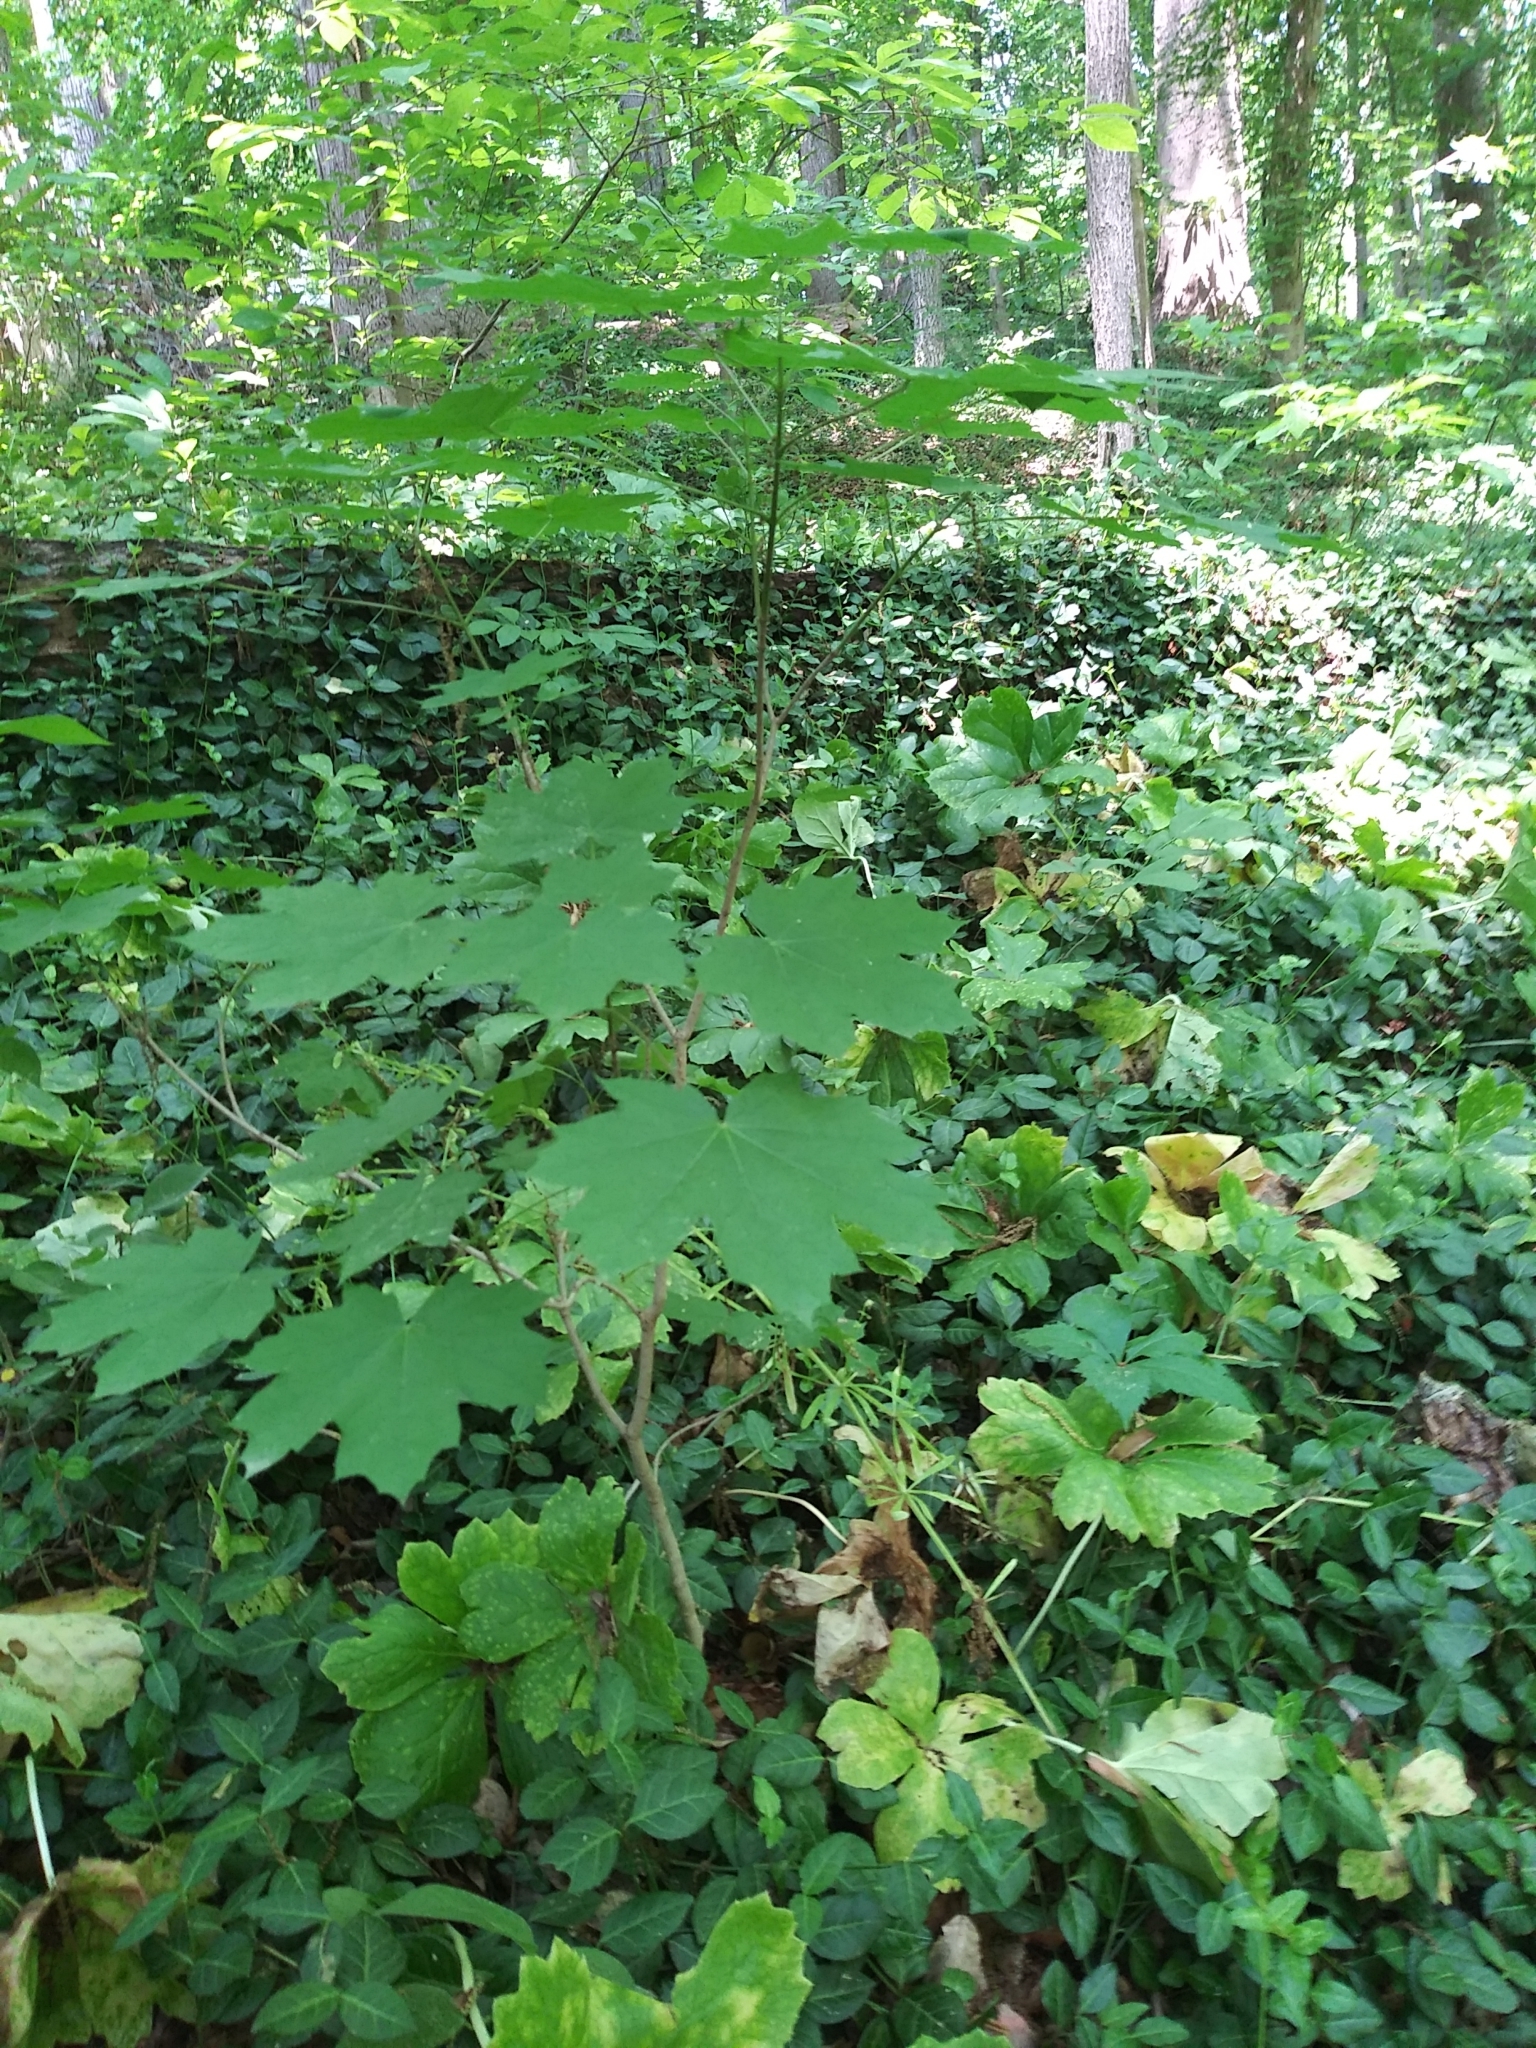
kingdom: Plantae
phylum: Tracheophyta
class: Magnoliopsida
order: Sapindales
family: Sapindaceae
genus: Acer
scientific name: Acer platanoides
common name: Norway maple
